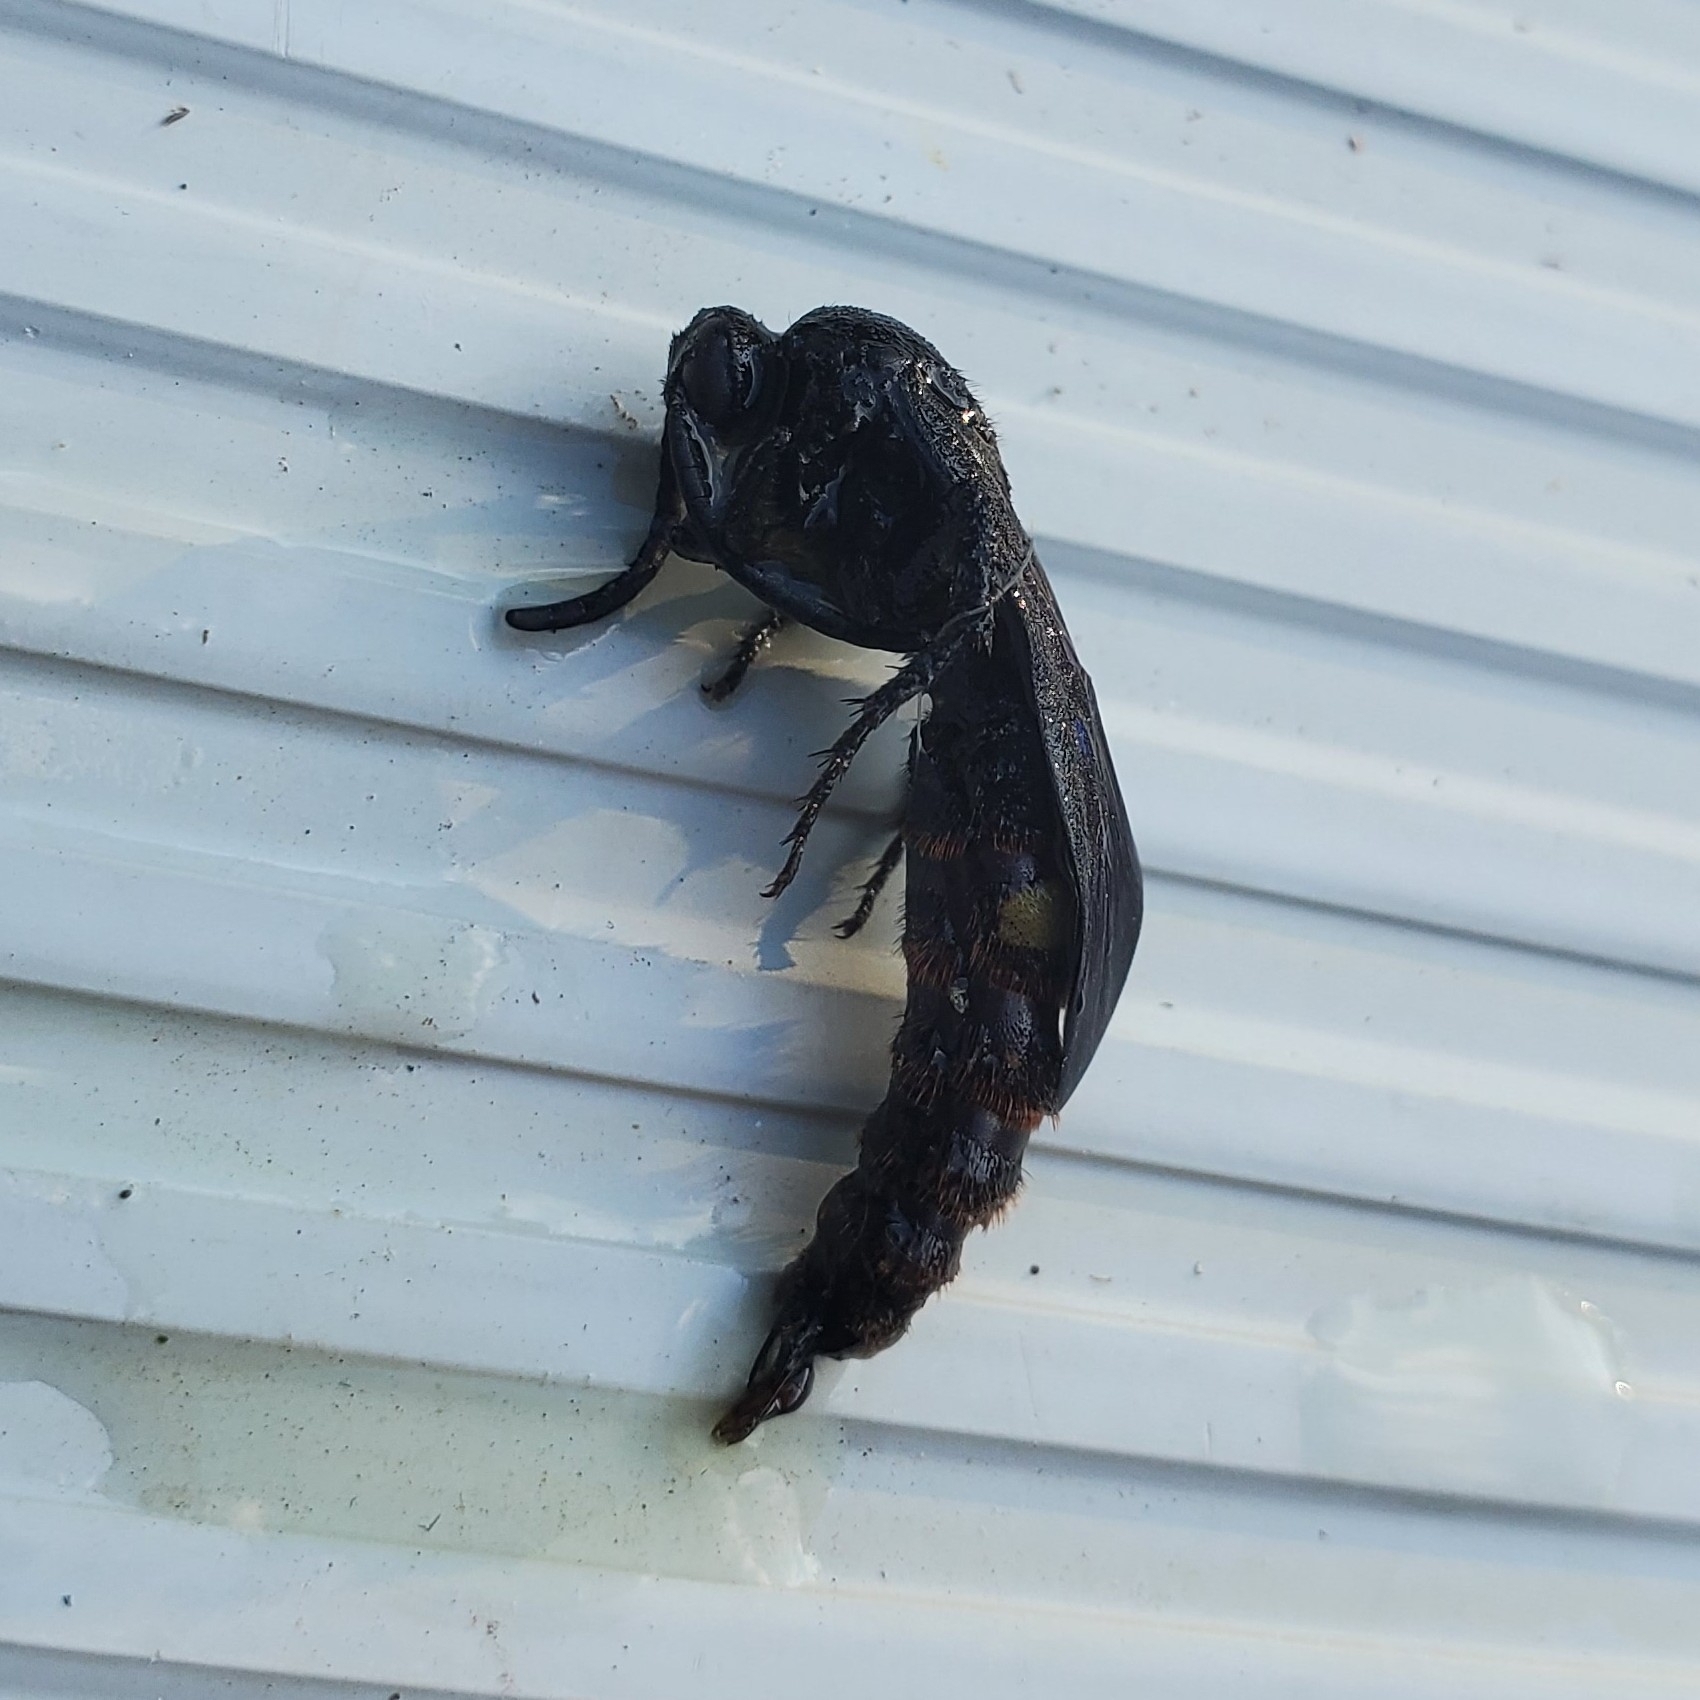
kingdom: Animalia
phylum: Arthropoda
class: Insecta
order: Hymenoptera
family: Scoliidae
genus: Scolia
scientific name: Scolia dubia
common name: Blue-winged scoliid wasp
